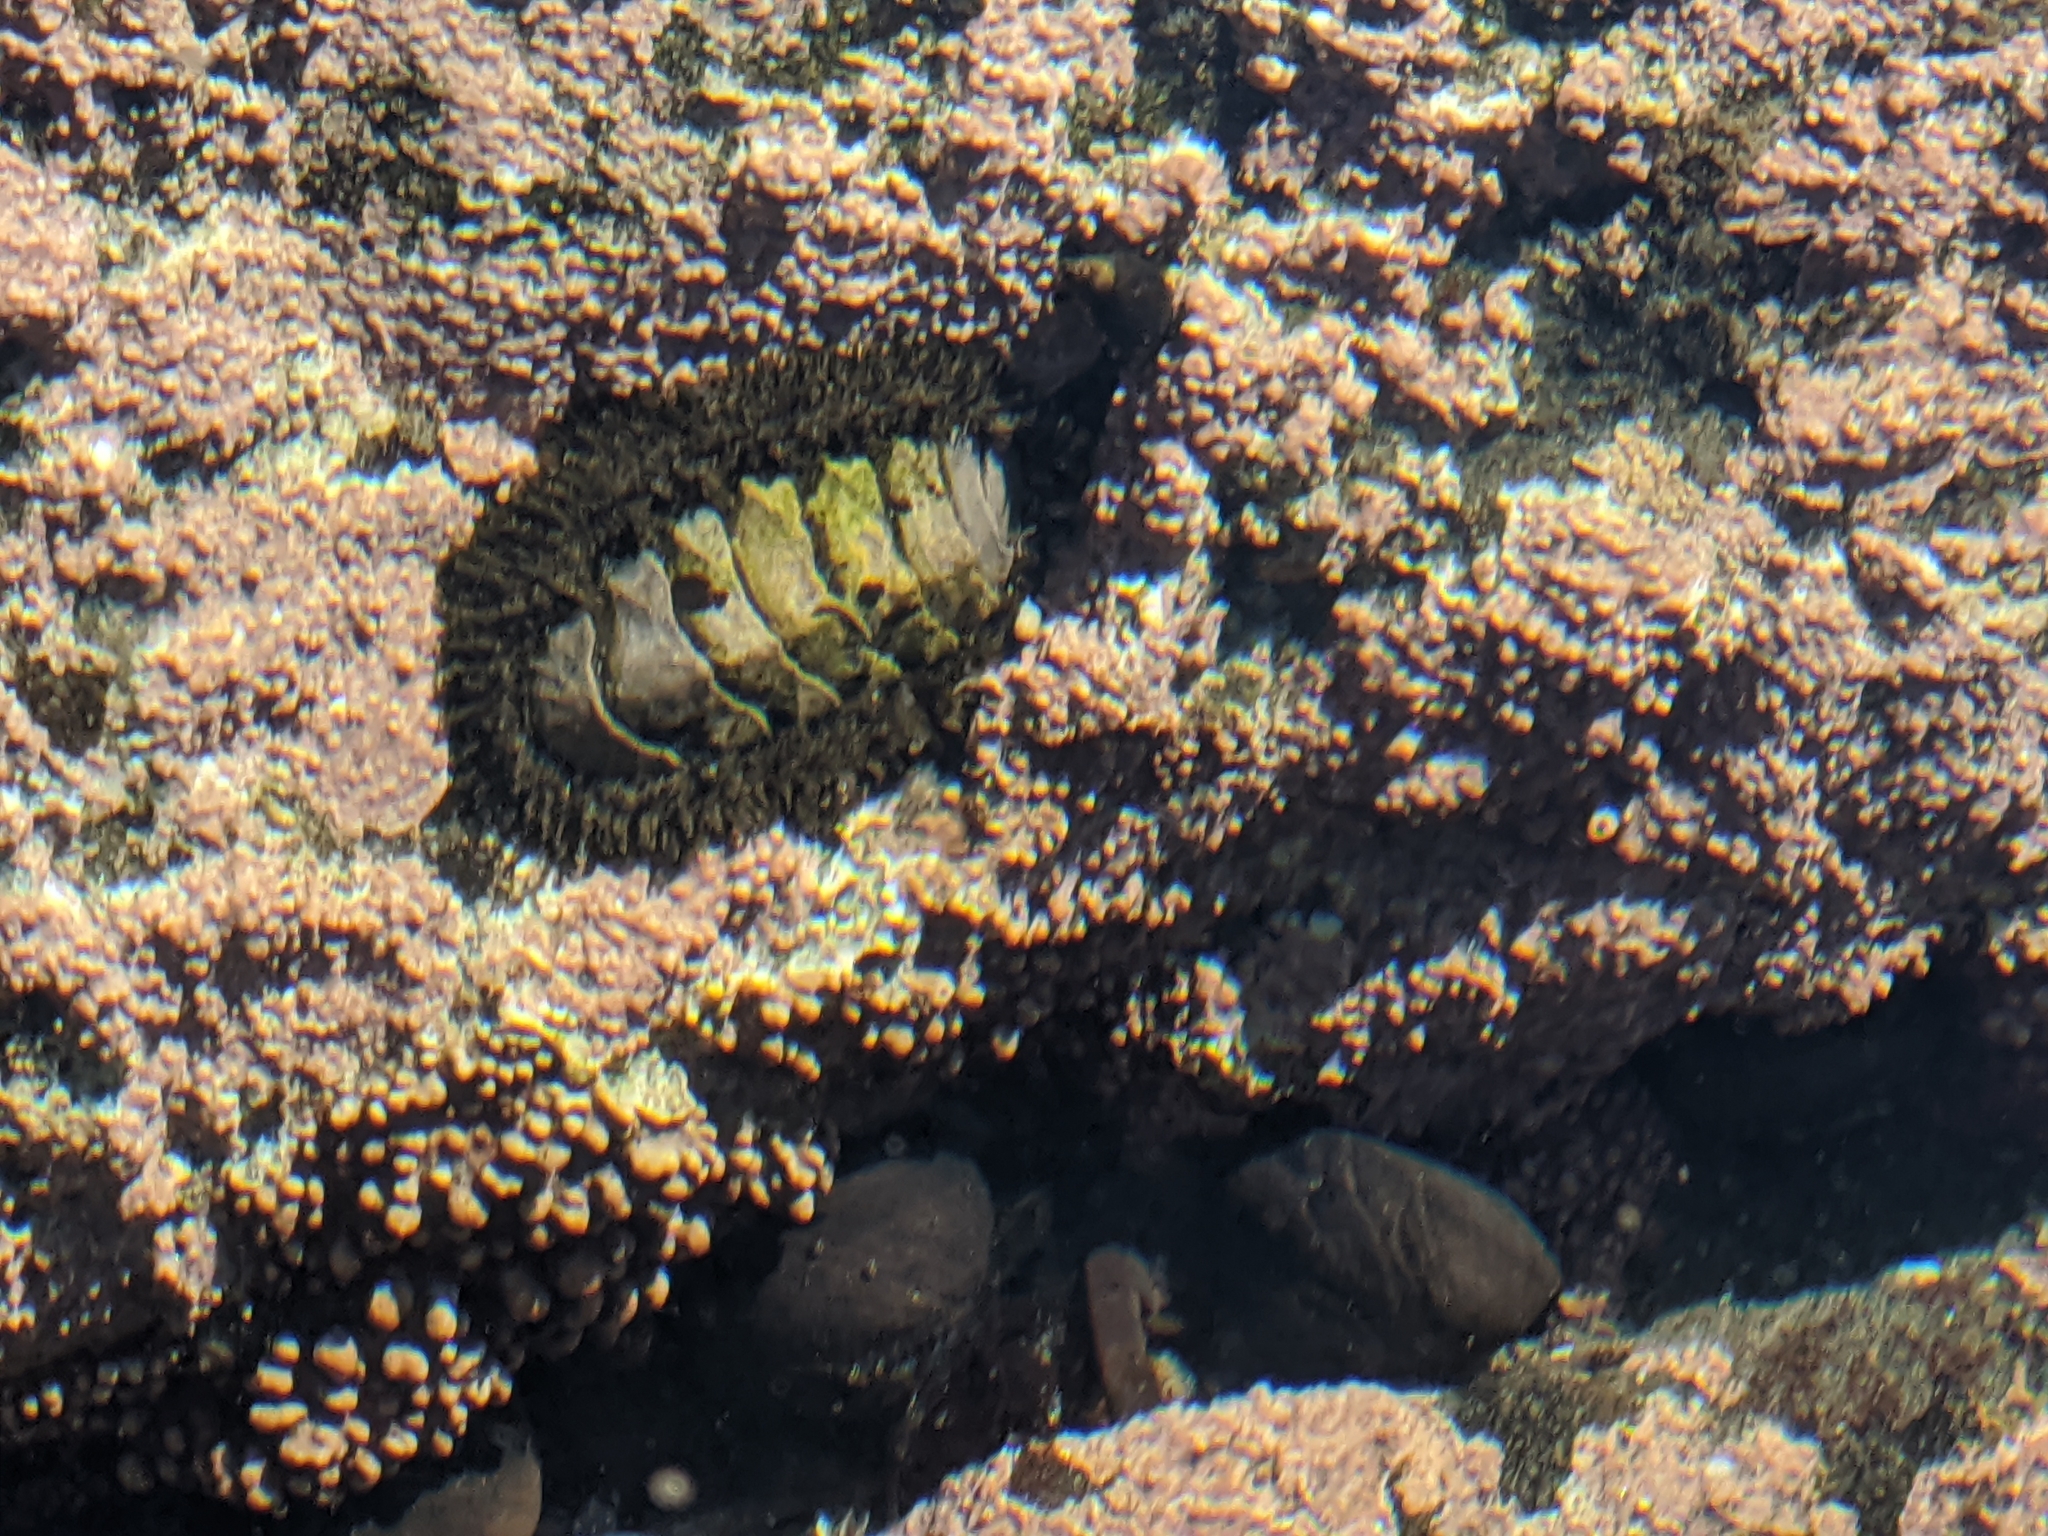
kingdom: Animalia
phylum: Mollusca
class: Polyplacophora
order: Chitonida
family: Mopaliidae
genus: Mopalia
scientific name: Mopalia muscosa
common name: Mossy chiton
